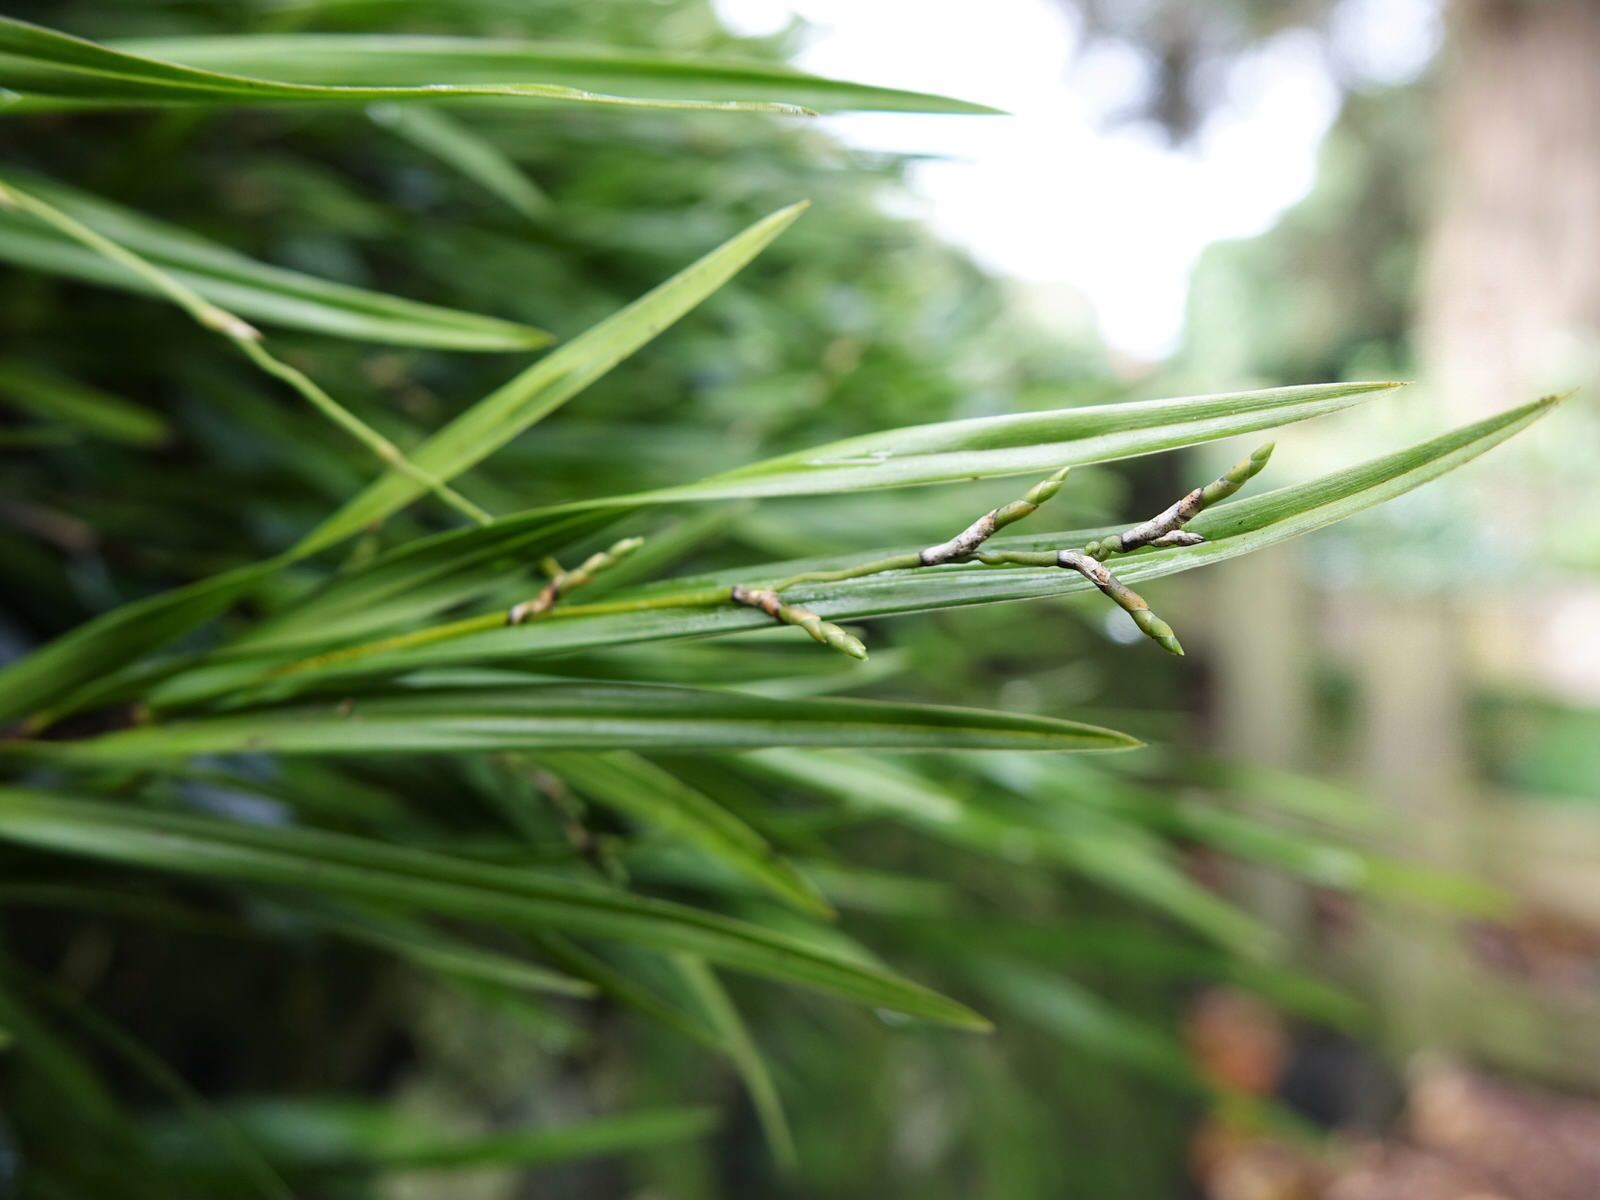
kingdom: Plantae
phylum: Tracheophyta
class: Liliopsida
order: Asparagales
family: Orchidaceae
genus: Earina
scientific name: Earina mucronata
